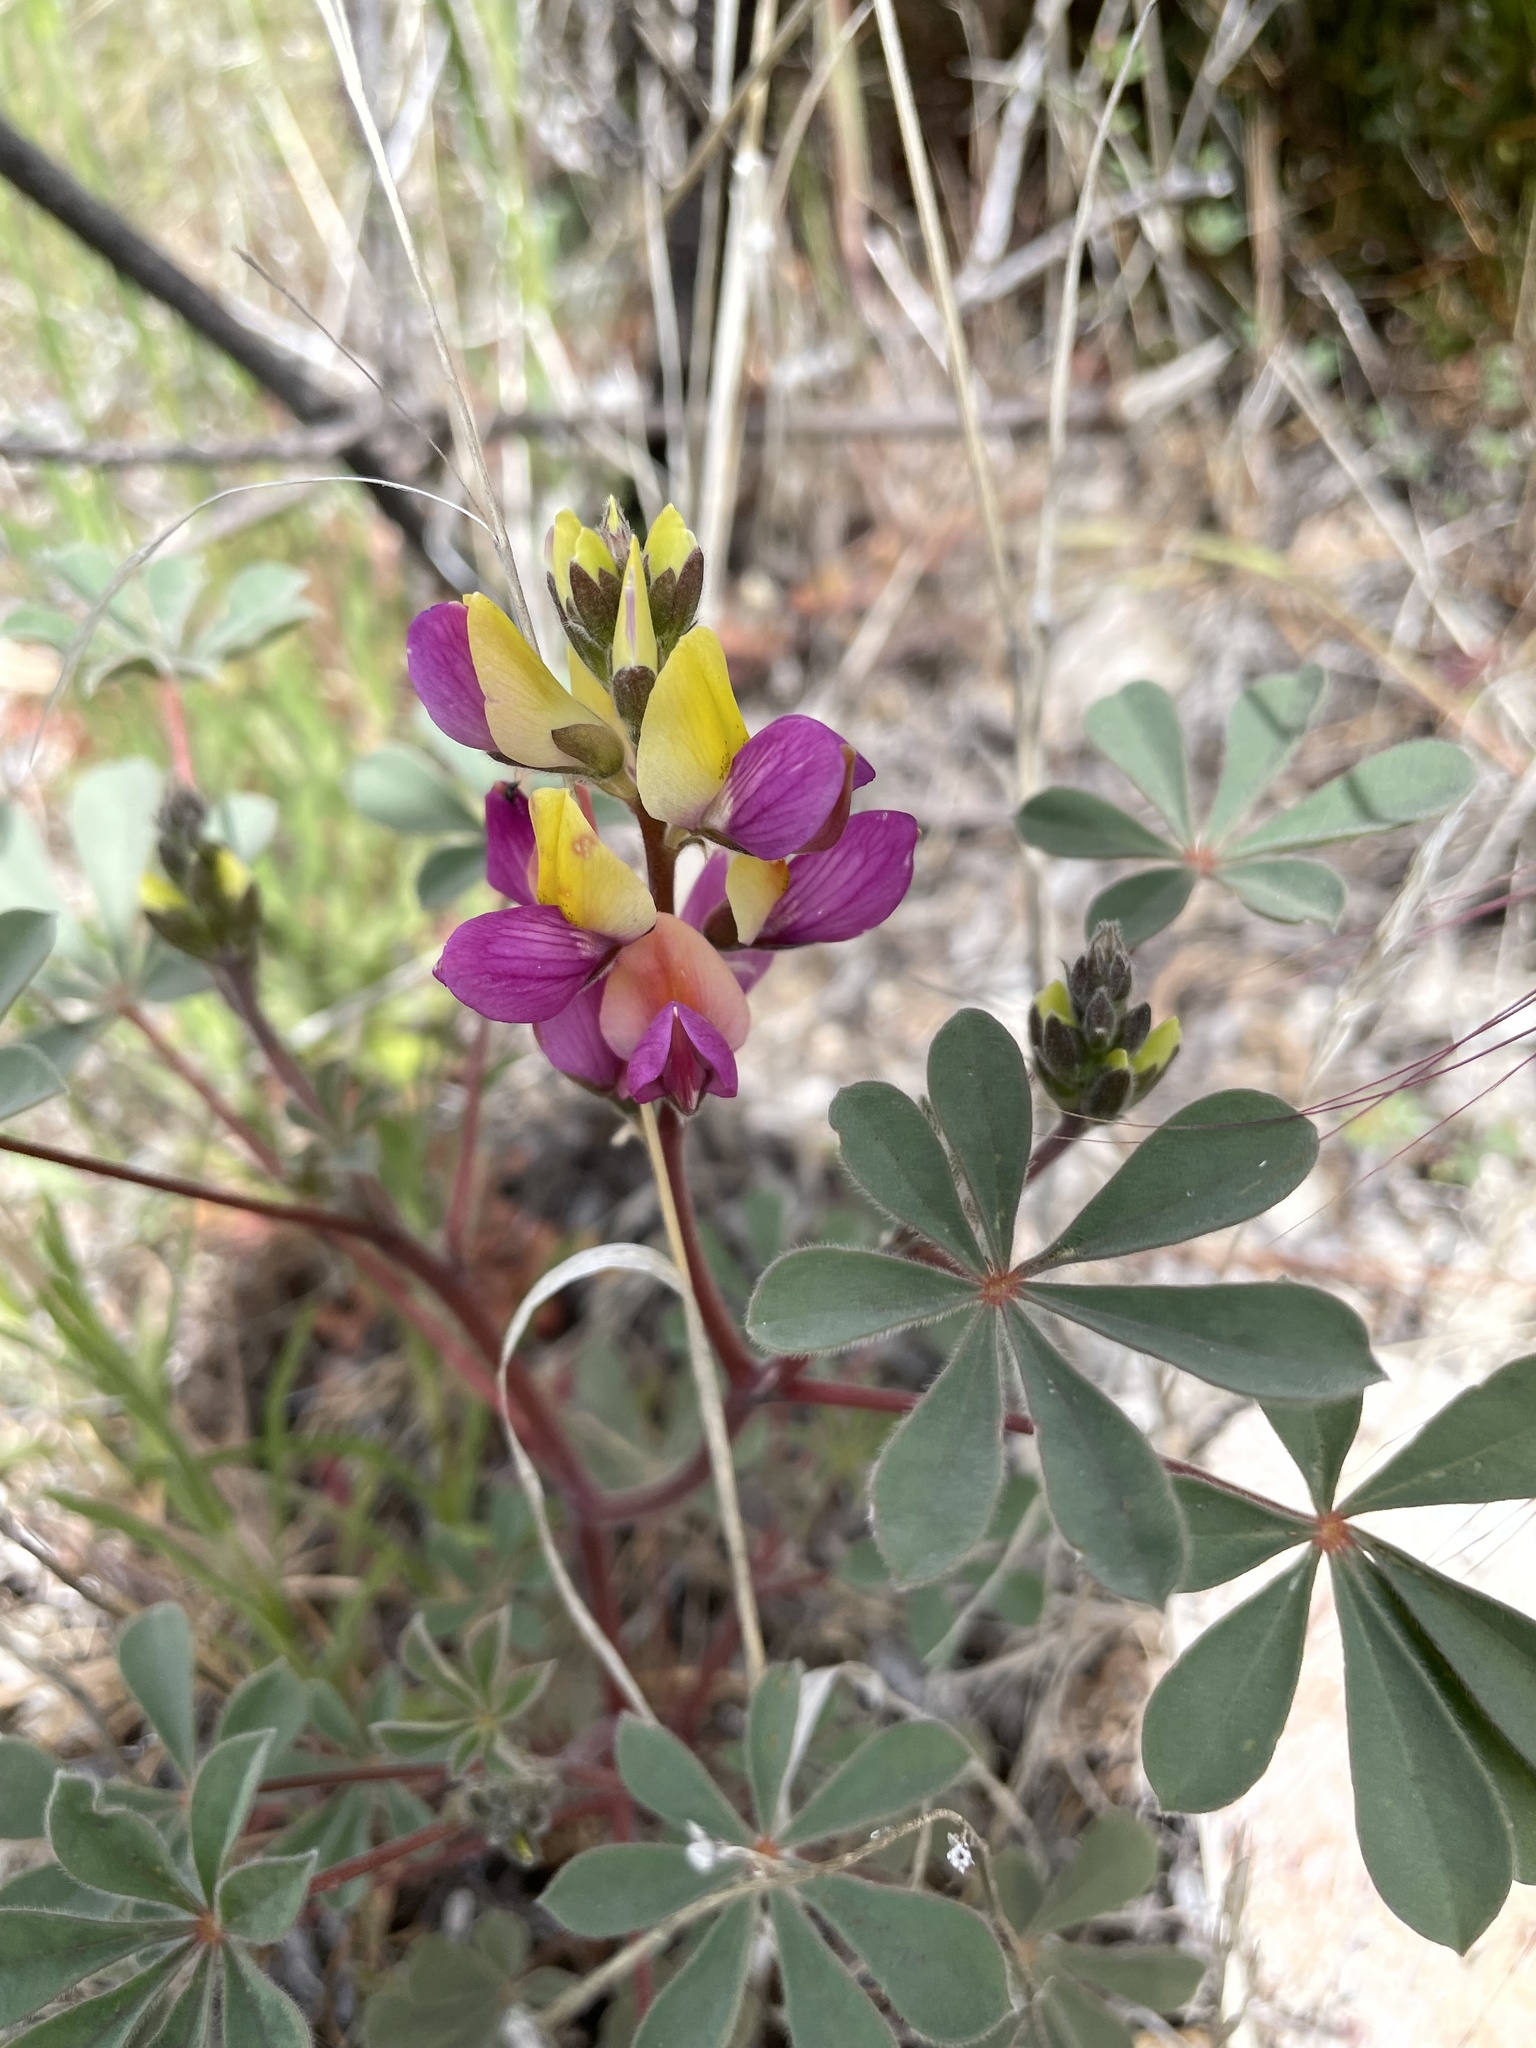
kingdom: Plantae
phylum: Tracheophyta
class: Magnoliopsida
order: Fabales
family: Fabaceae
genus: Lupinus
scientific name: Lupinus stiversii
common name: Harlequin lupine
